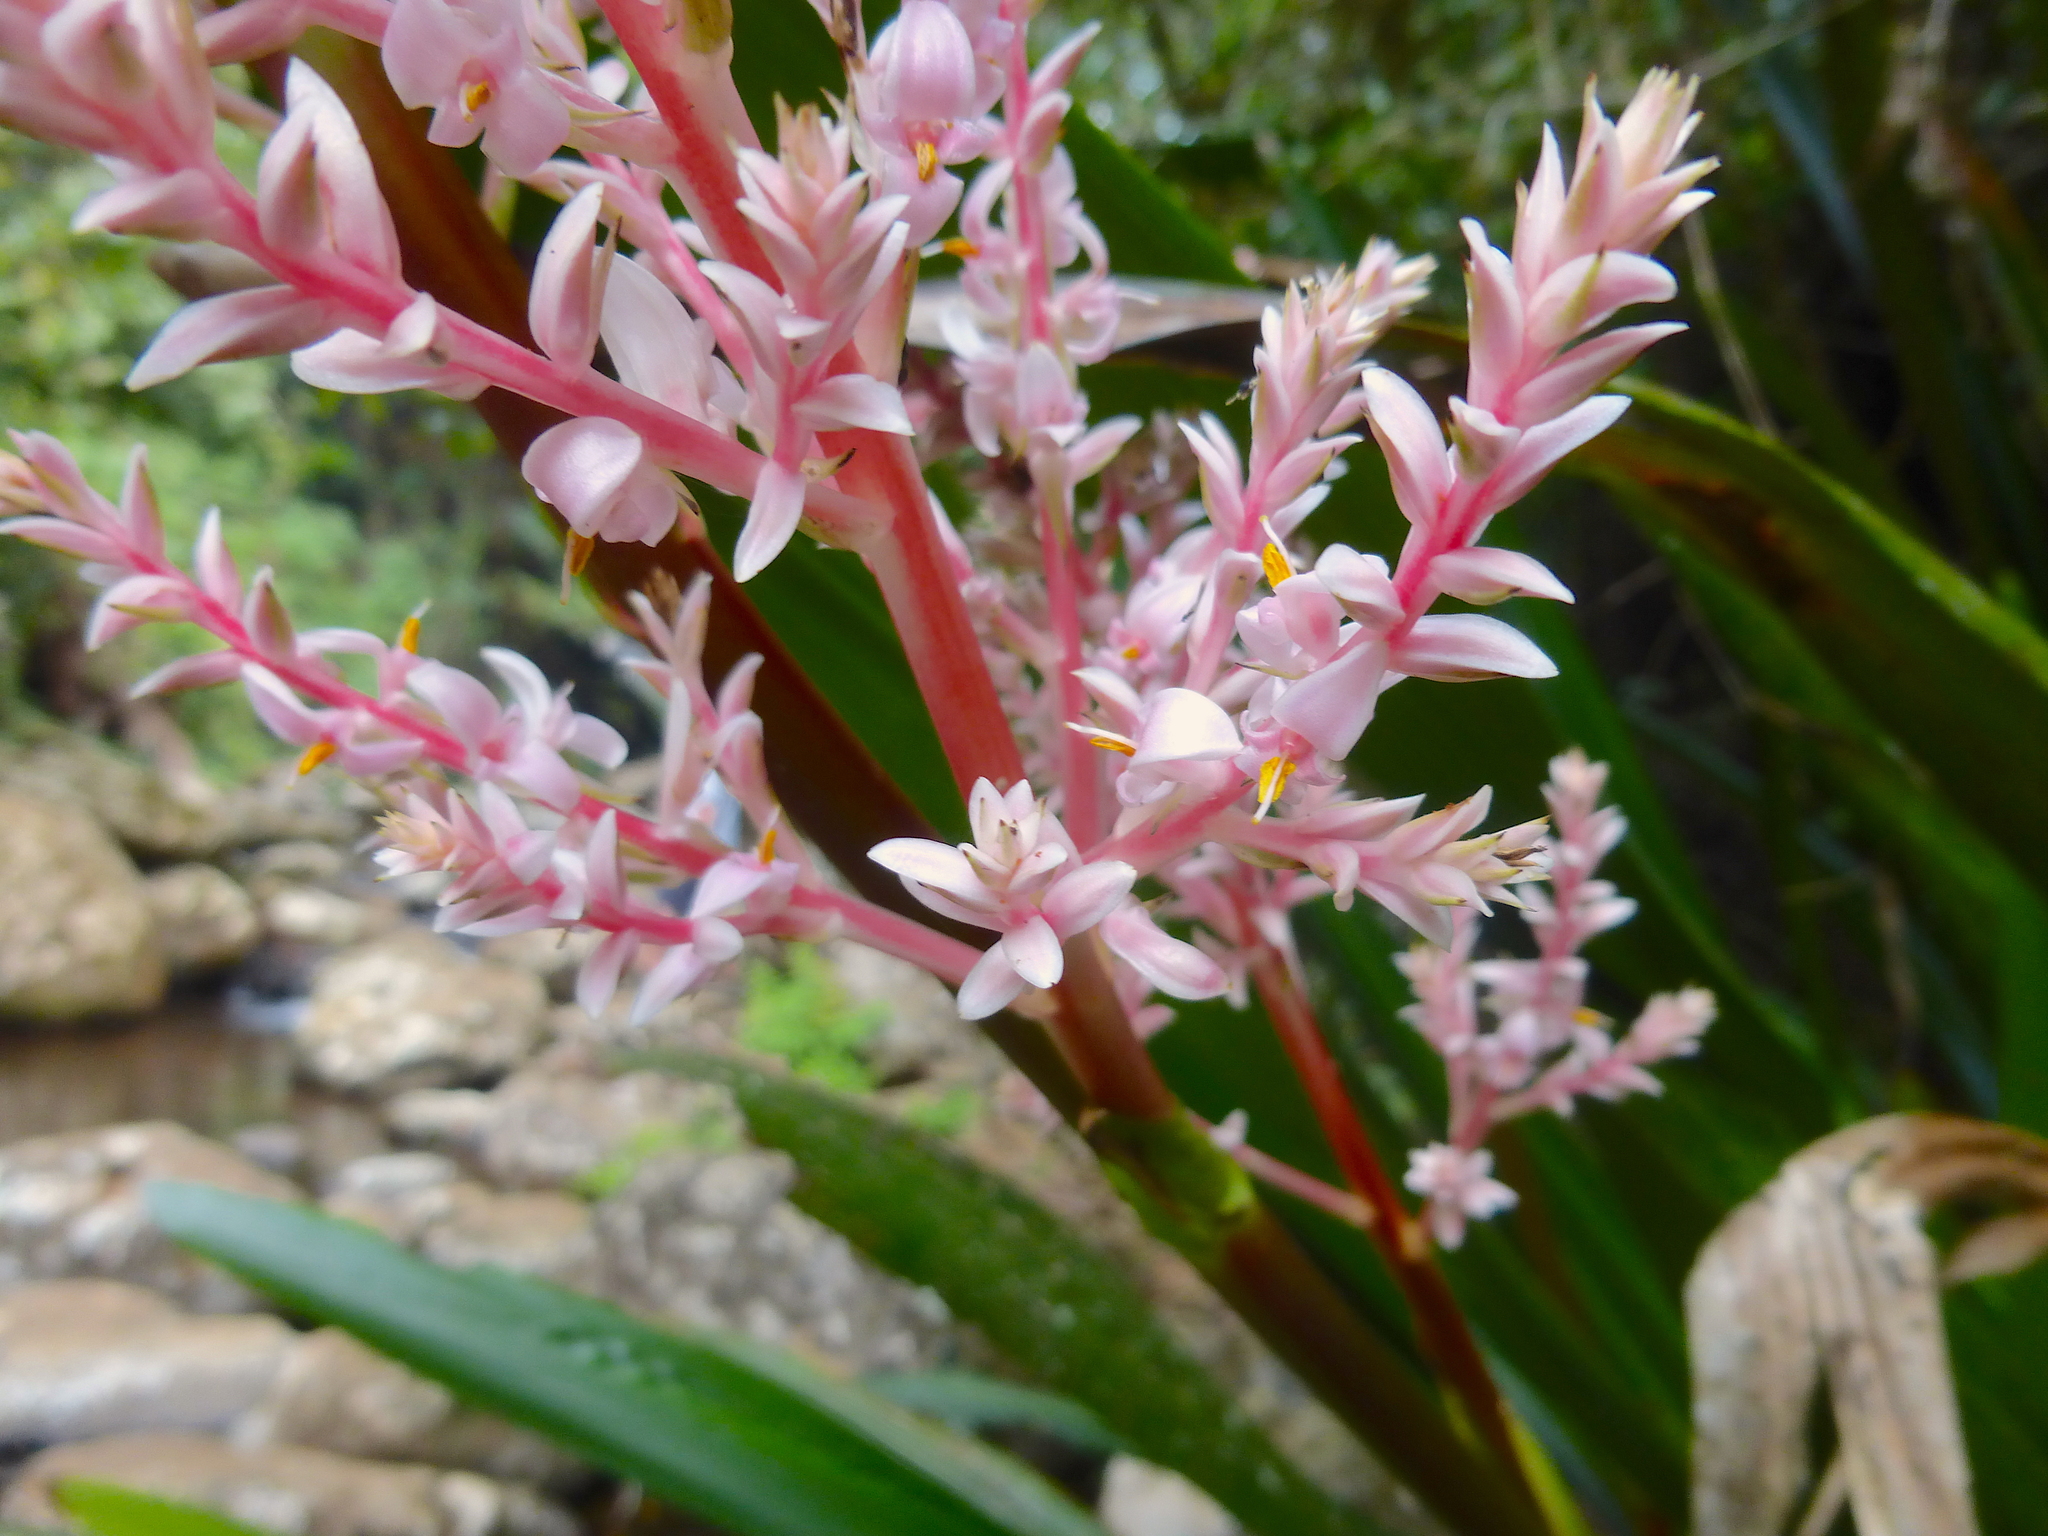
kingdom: Plantae
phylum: Tracheophyta
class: Liliopsida
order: Commelinales
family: Philydraceae
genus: Helmholtzia
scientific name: Helmholtzia glaberrima
